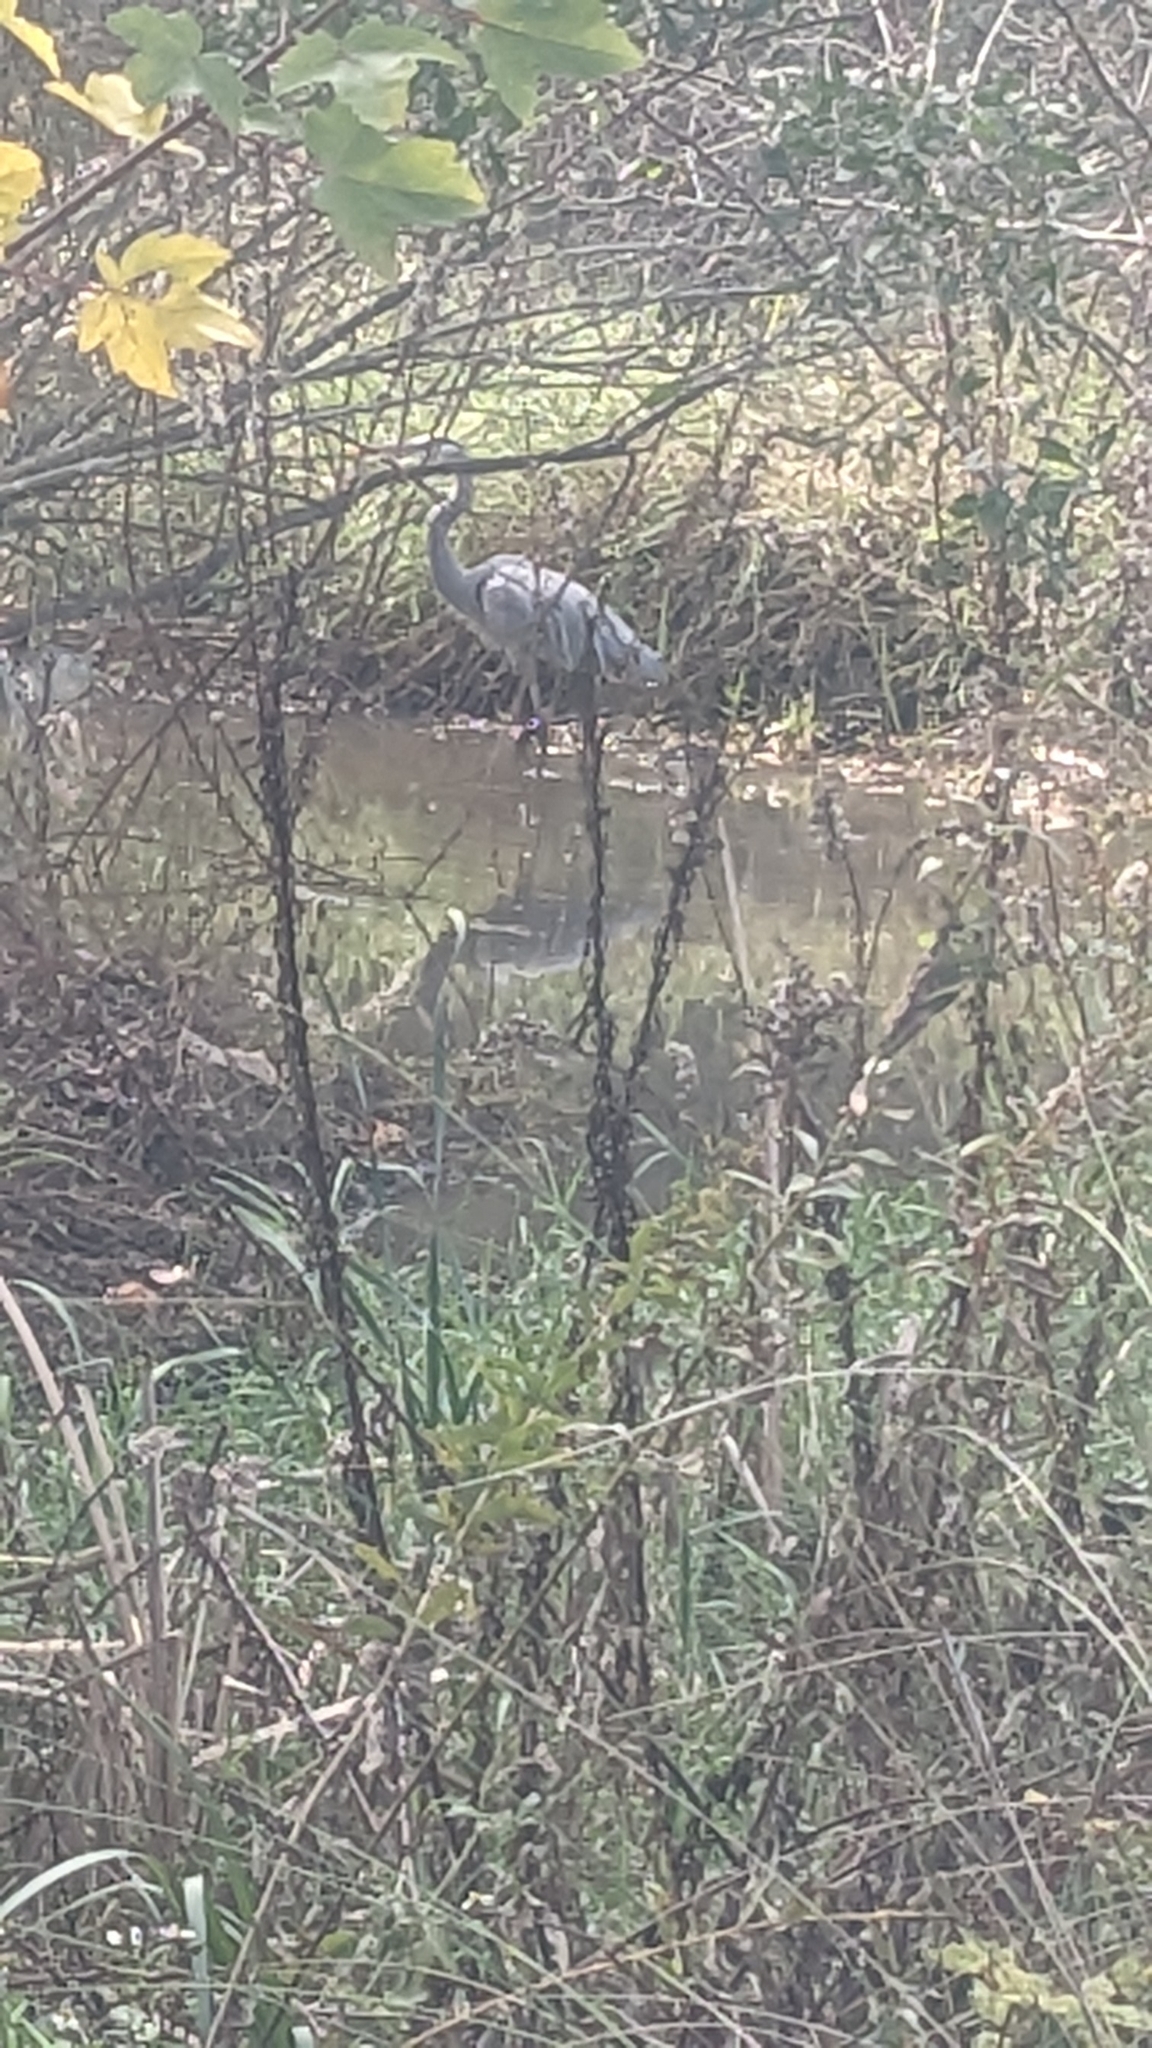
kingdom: Animalia
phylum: Chordata
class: Aves
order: Pelecaniformes
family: Ardeidae
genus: Ardea
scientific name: Ardea herodias
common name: Great blue heron
